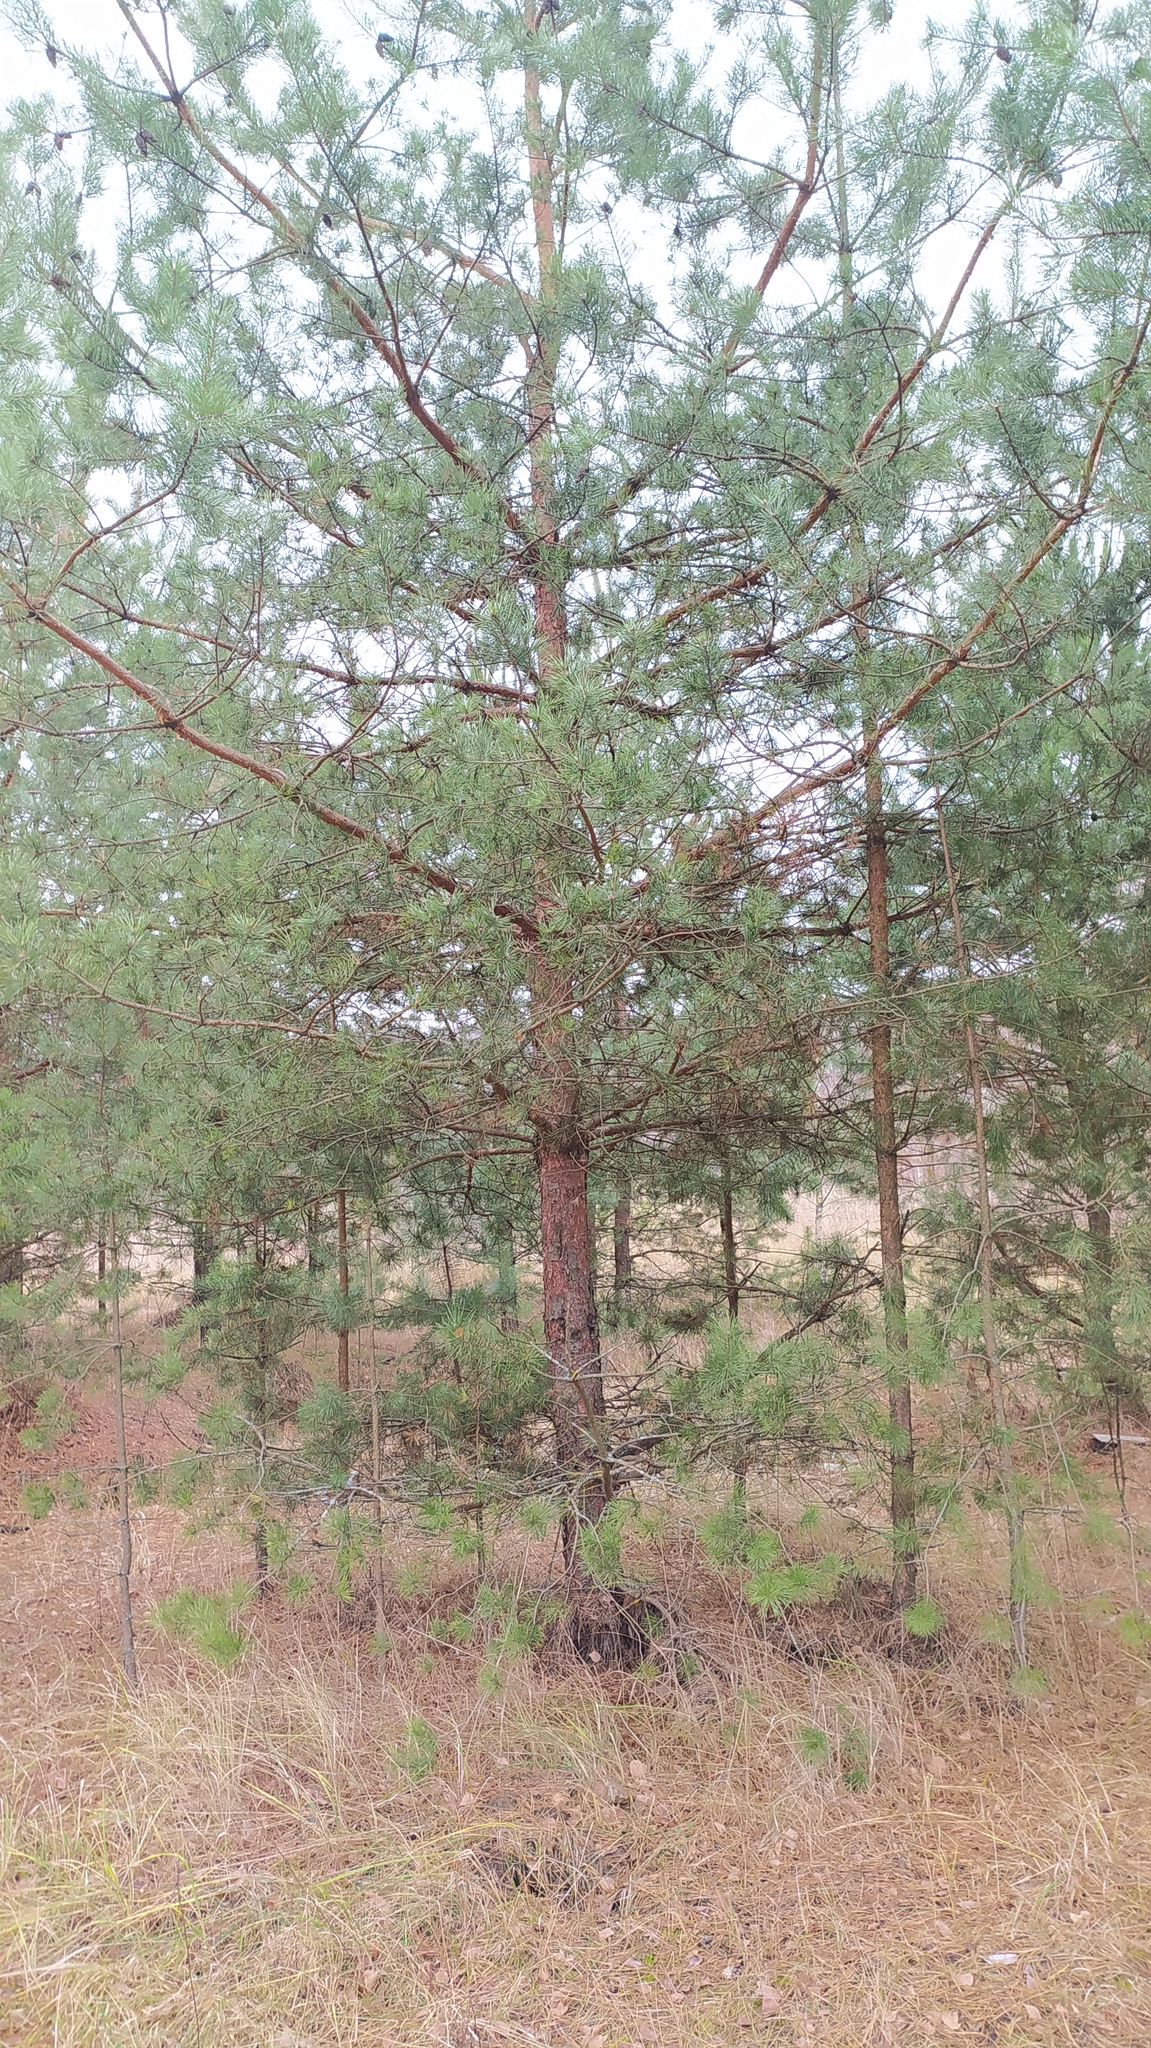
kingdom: Plantae
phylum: Tracheophyta
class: Pinopsida
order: Pinales
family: Pinaceae
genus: Pinus
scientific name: Pinus sylvestris
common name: Scots pine
